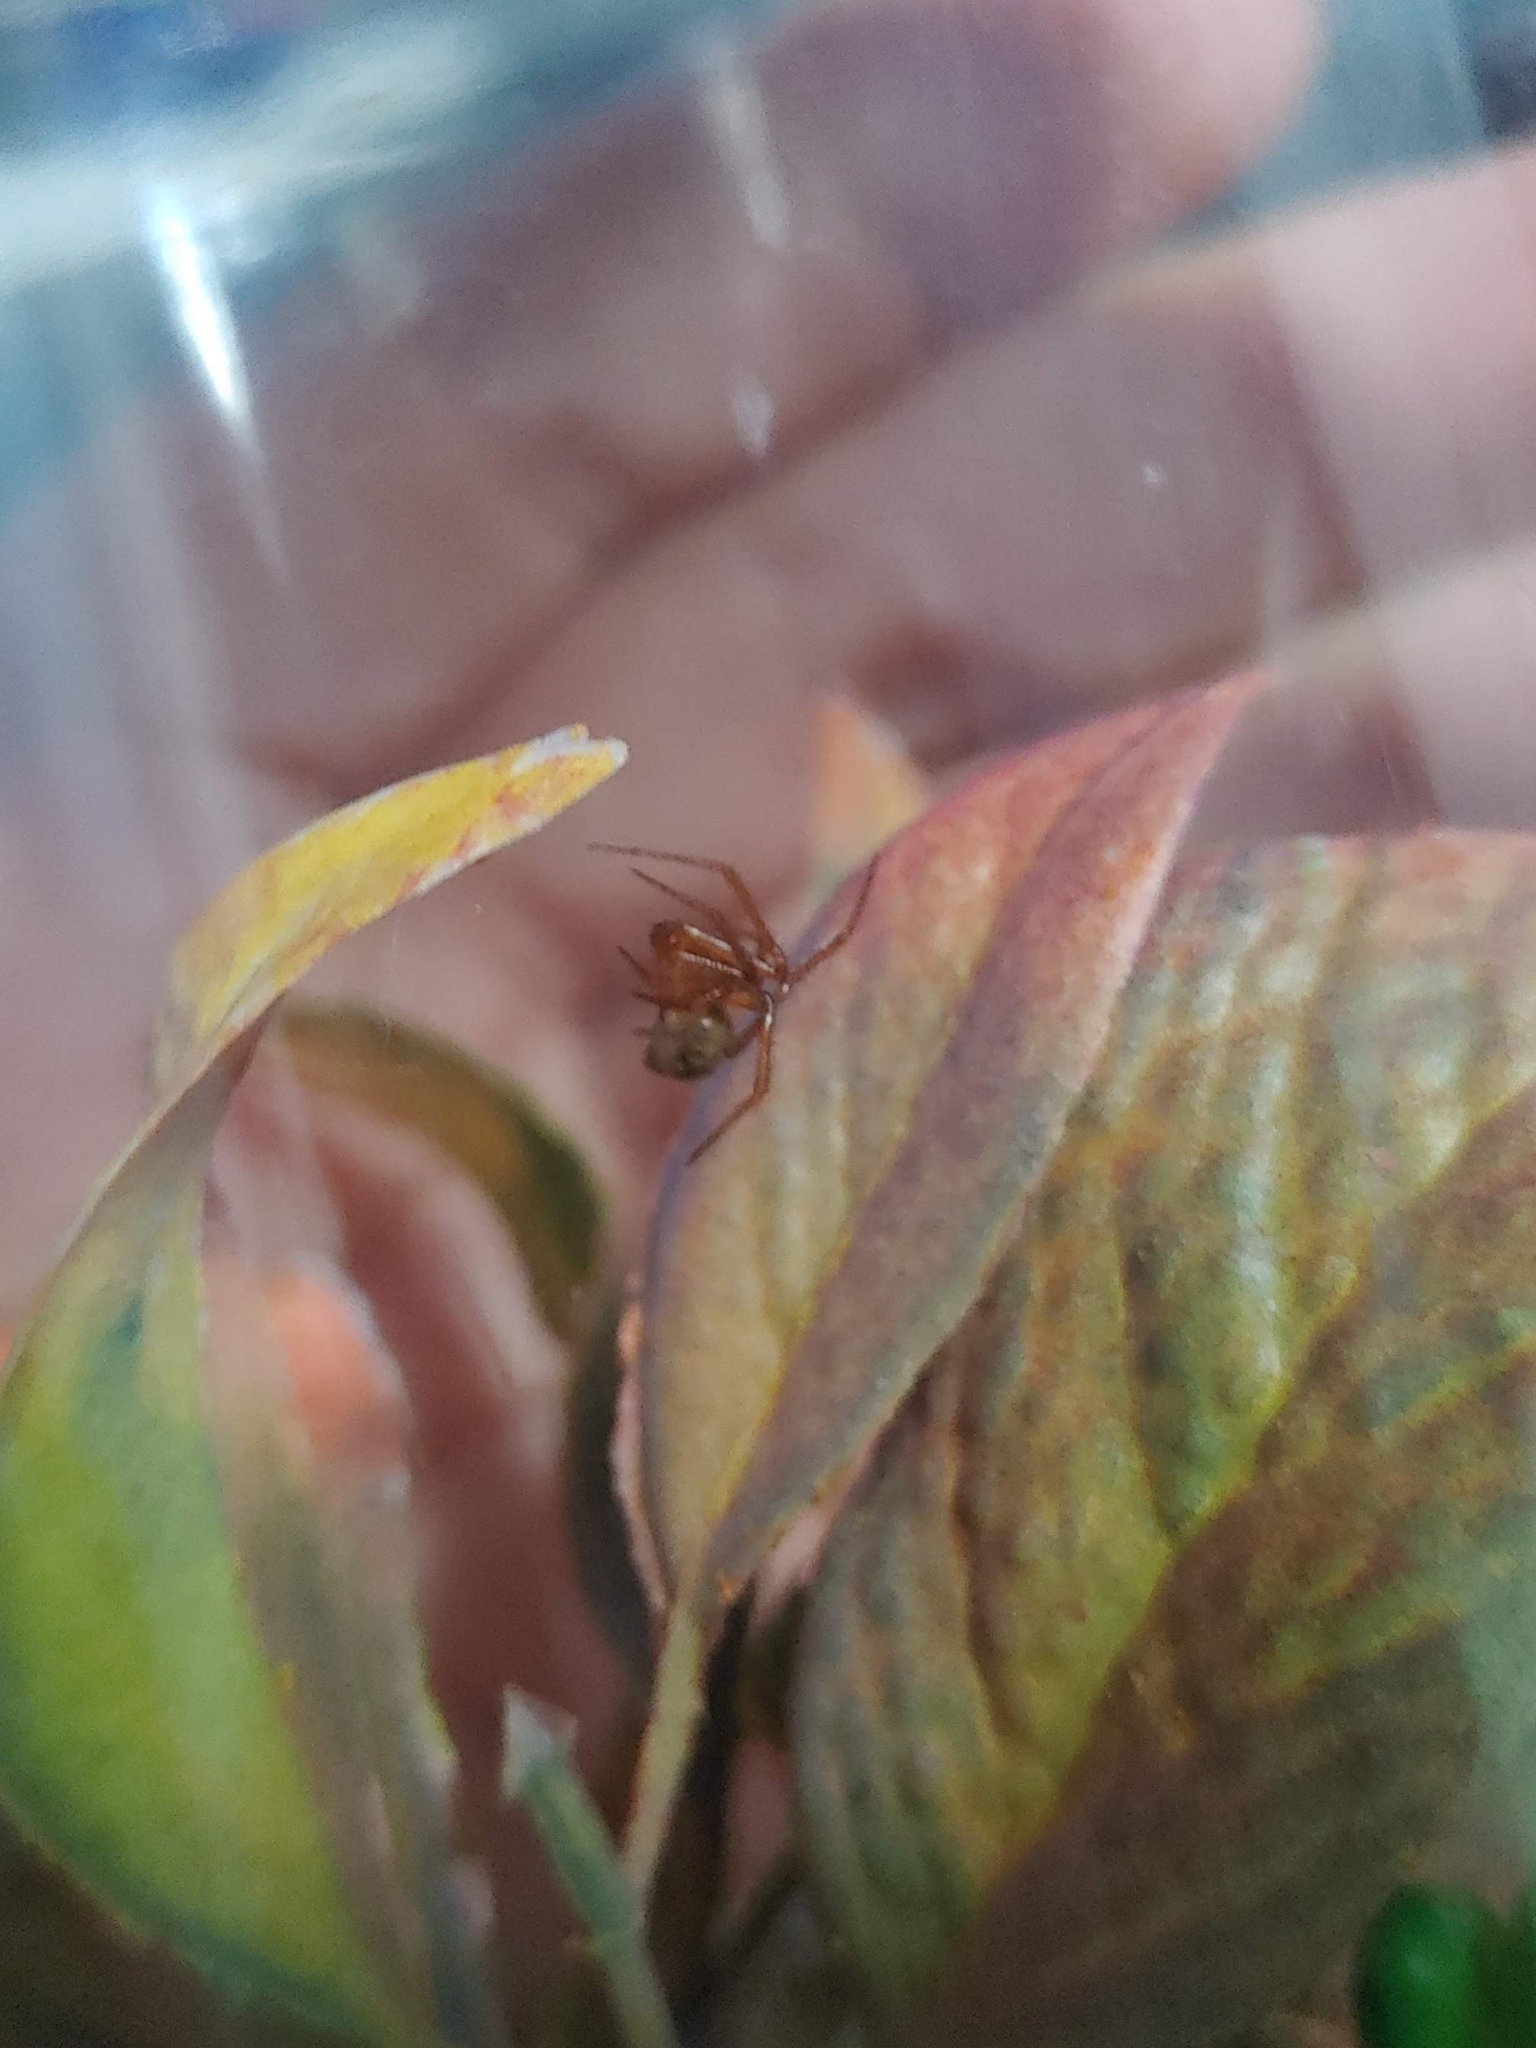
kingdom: Animalia
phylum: Arthropoda
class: Arachnida
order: Araneae
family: Theridiidae
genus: Nesticodes
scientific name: Nesticodes rufipes
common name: Cobweb spiders
